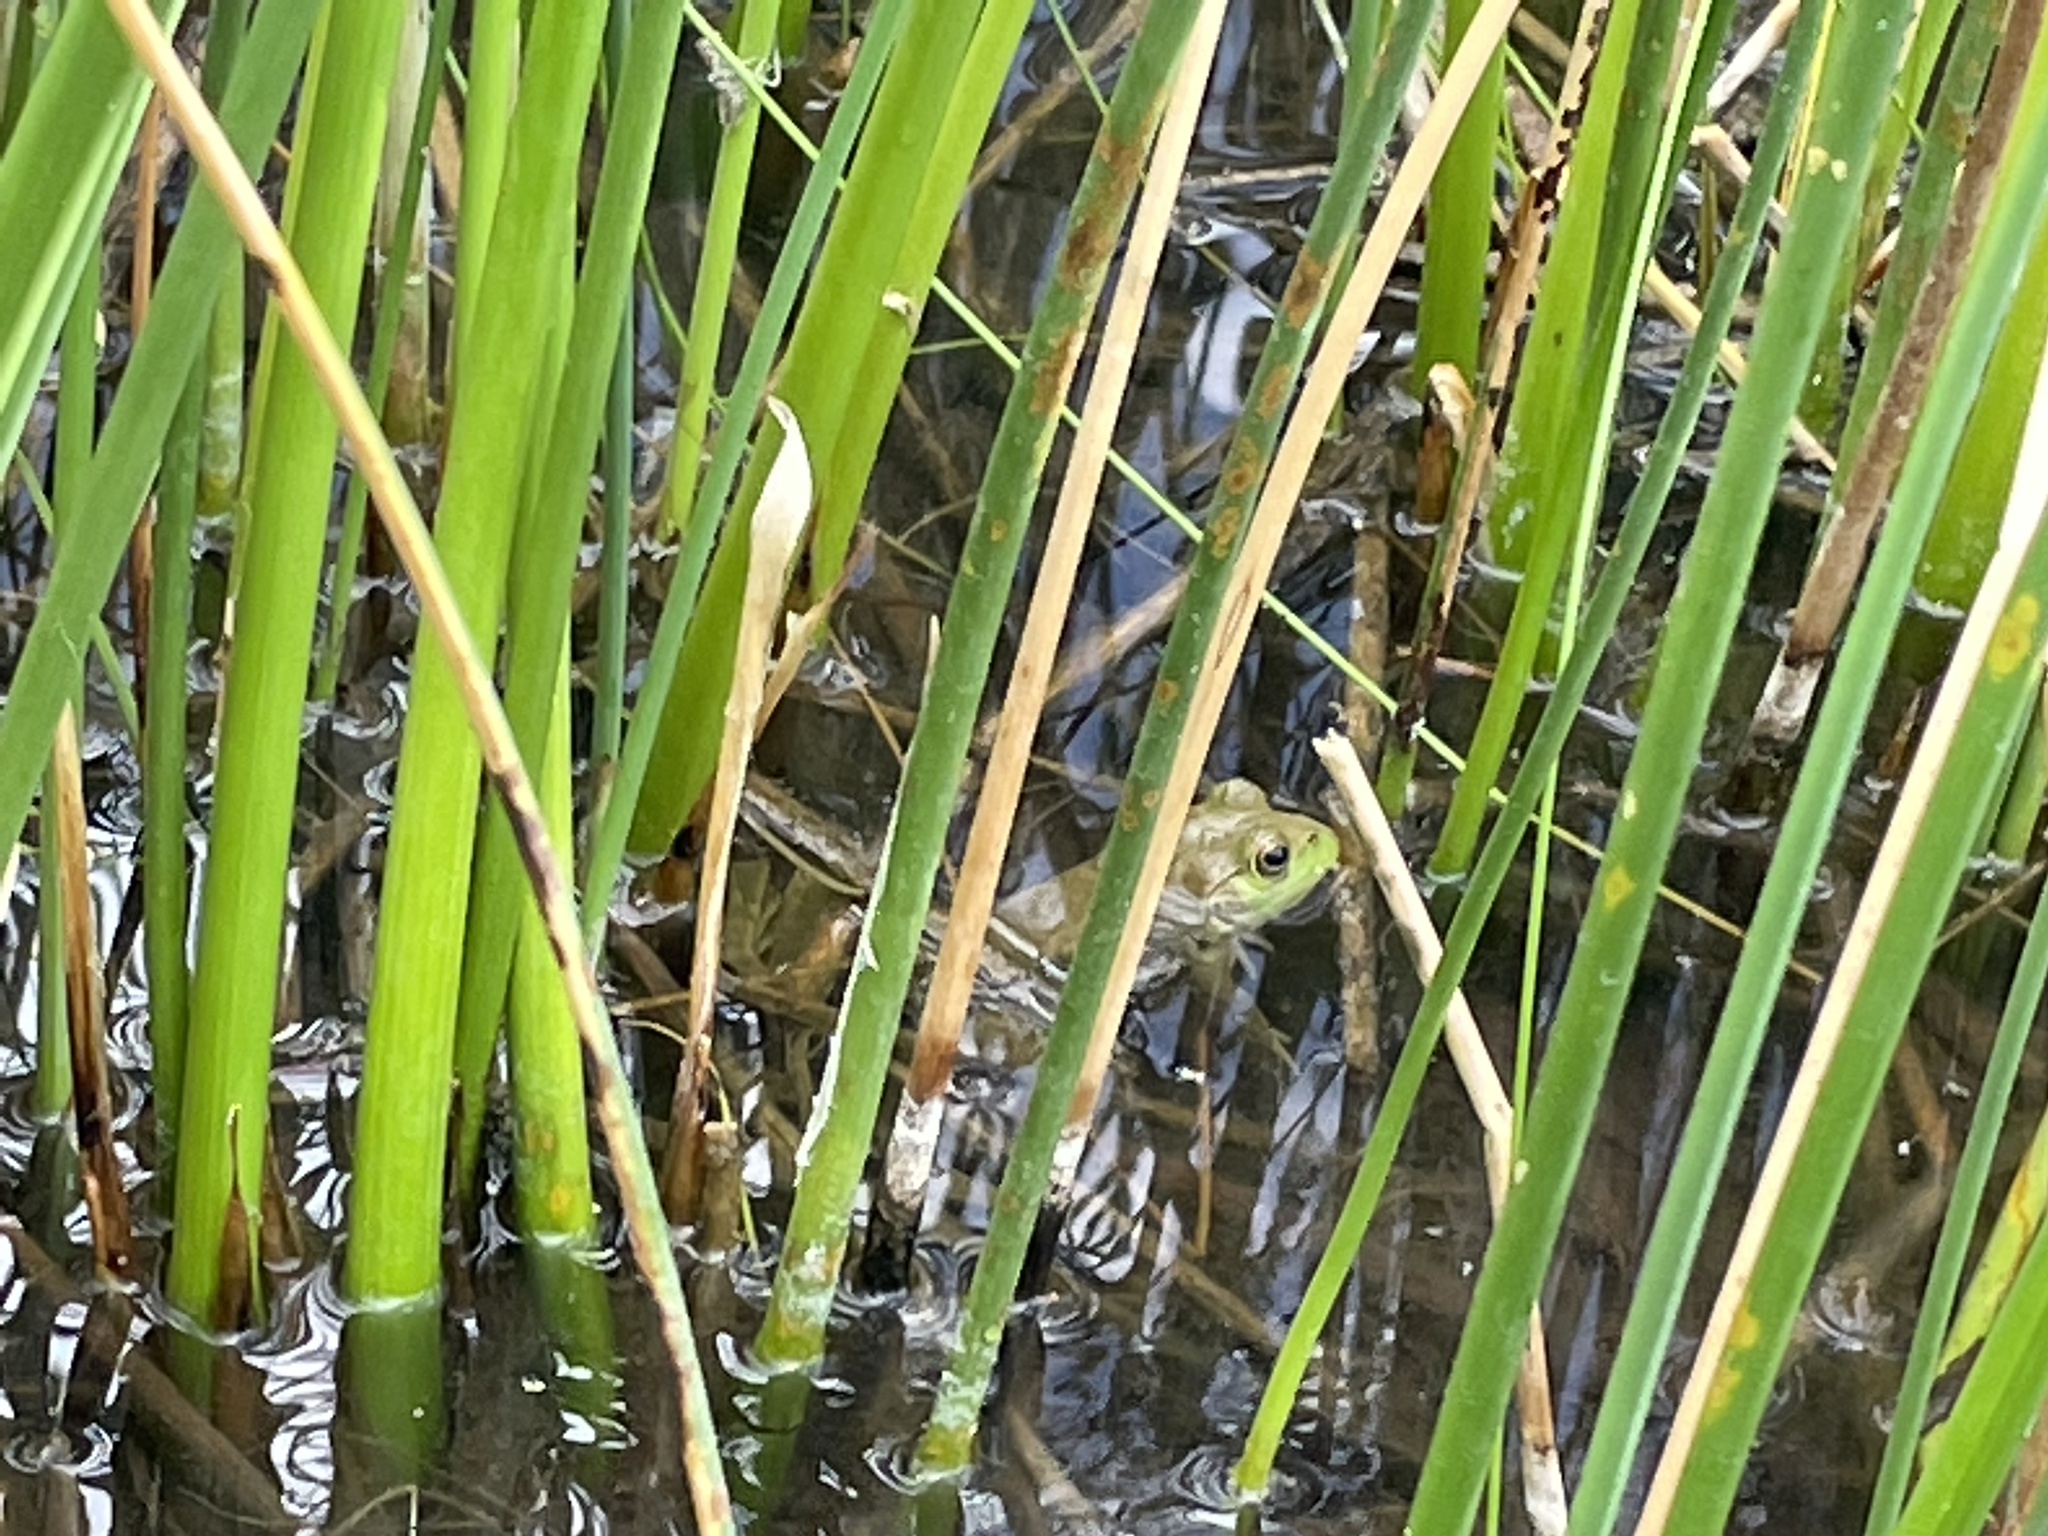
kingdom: Animalia
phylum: Chordata
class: Amphibia
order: Anura
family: Ranidae
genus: Lithobates
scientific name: Lithobates catesbeianus
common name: American bullfrog
